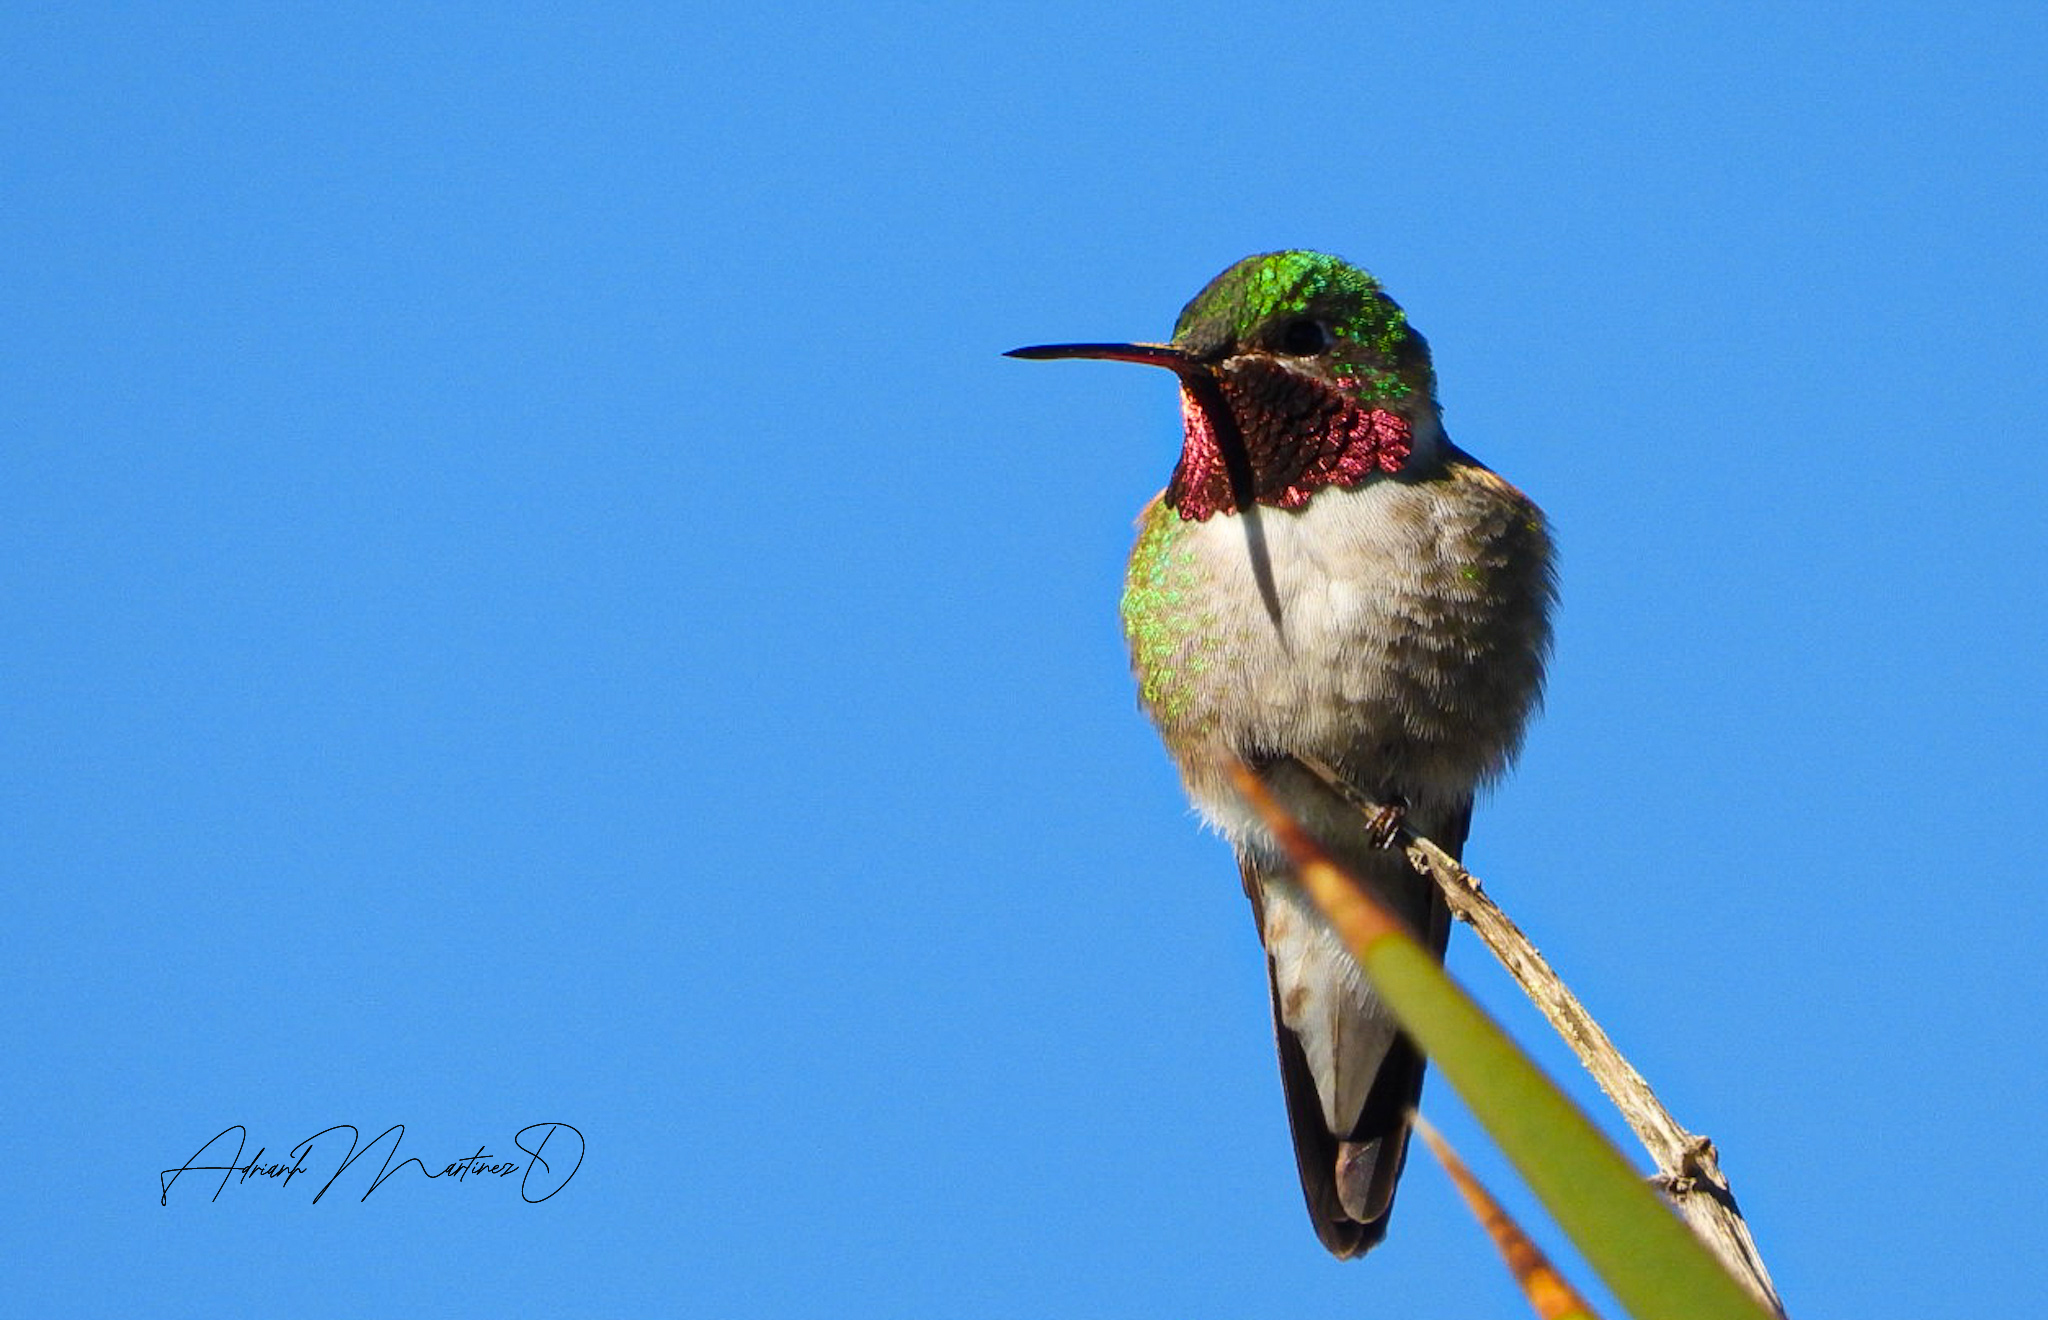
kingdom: Animalia
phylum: Chordata
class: Aves
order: Apodiformes
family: Trochilidae
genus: Selasphorus
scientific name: Selasphorus platycercus
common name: Broad-tailed hummingbird
